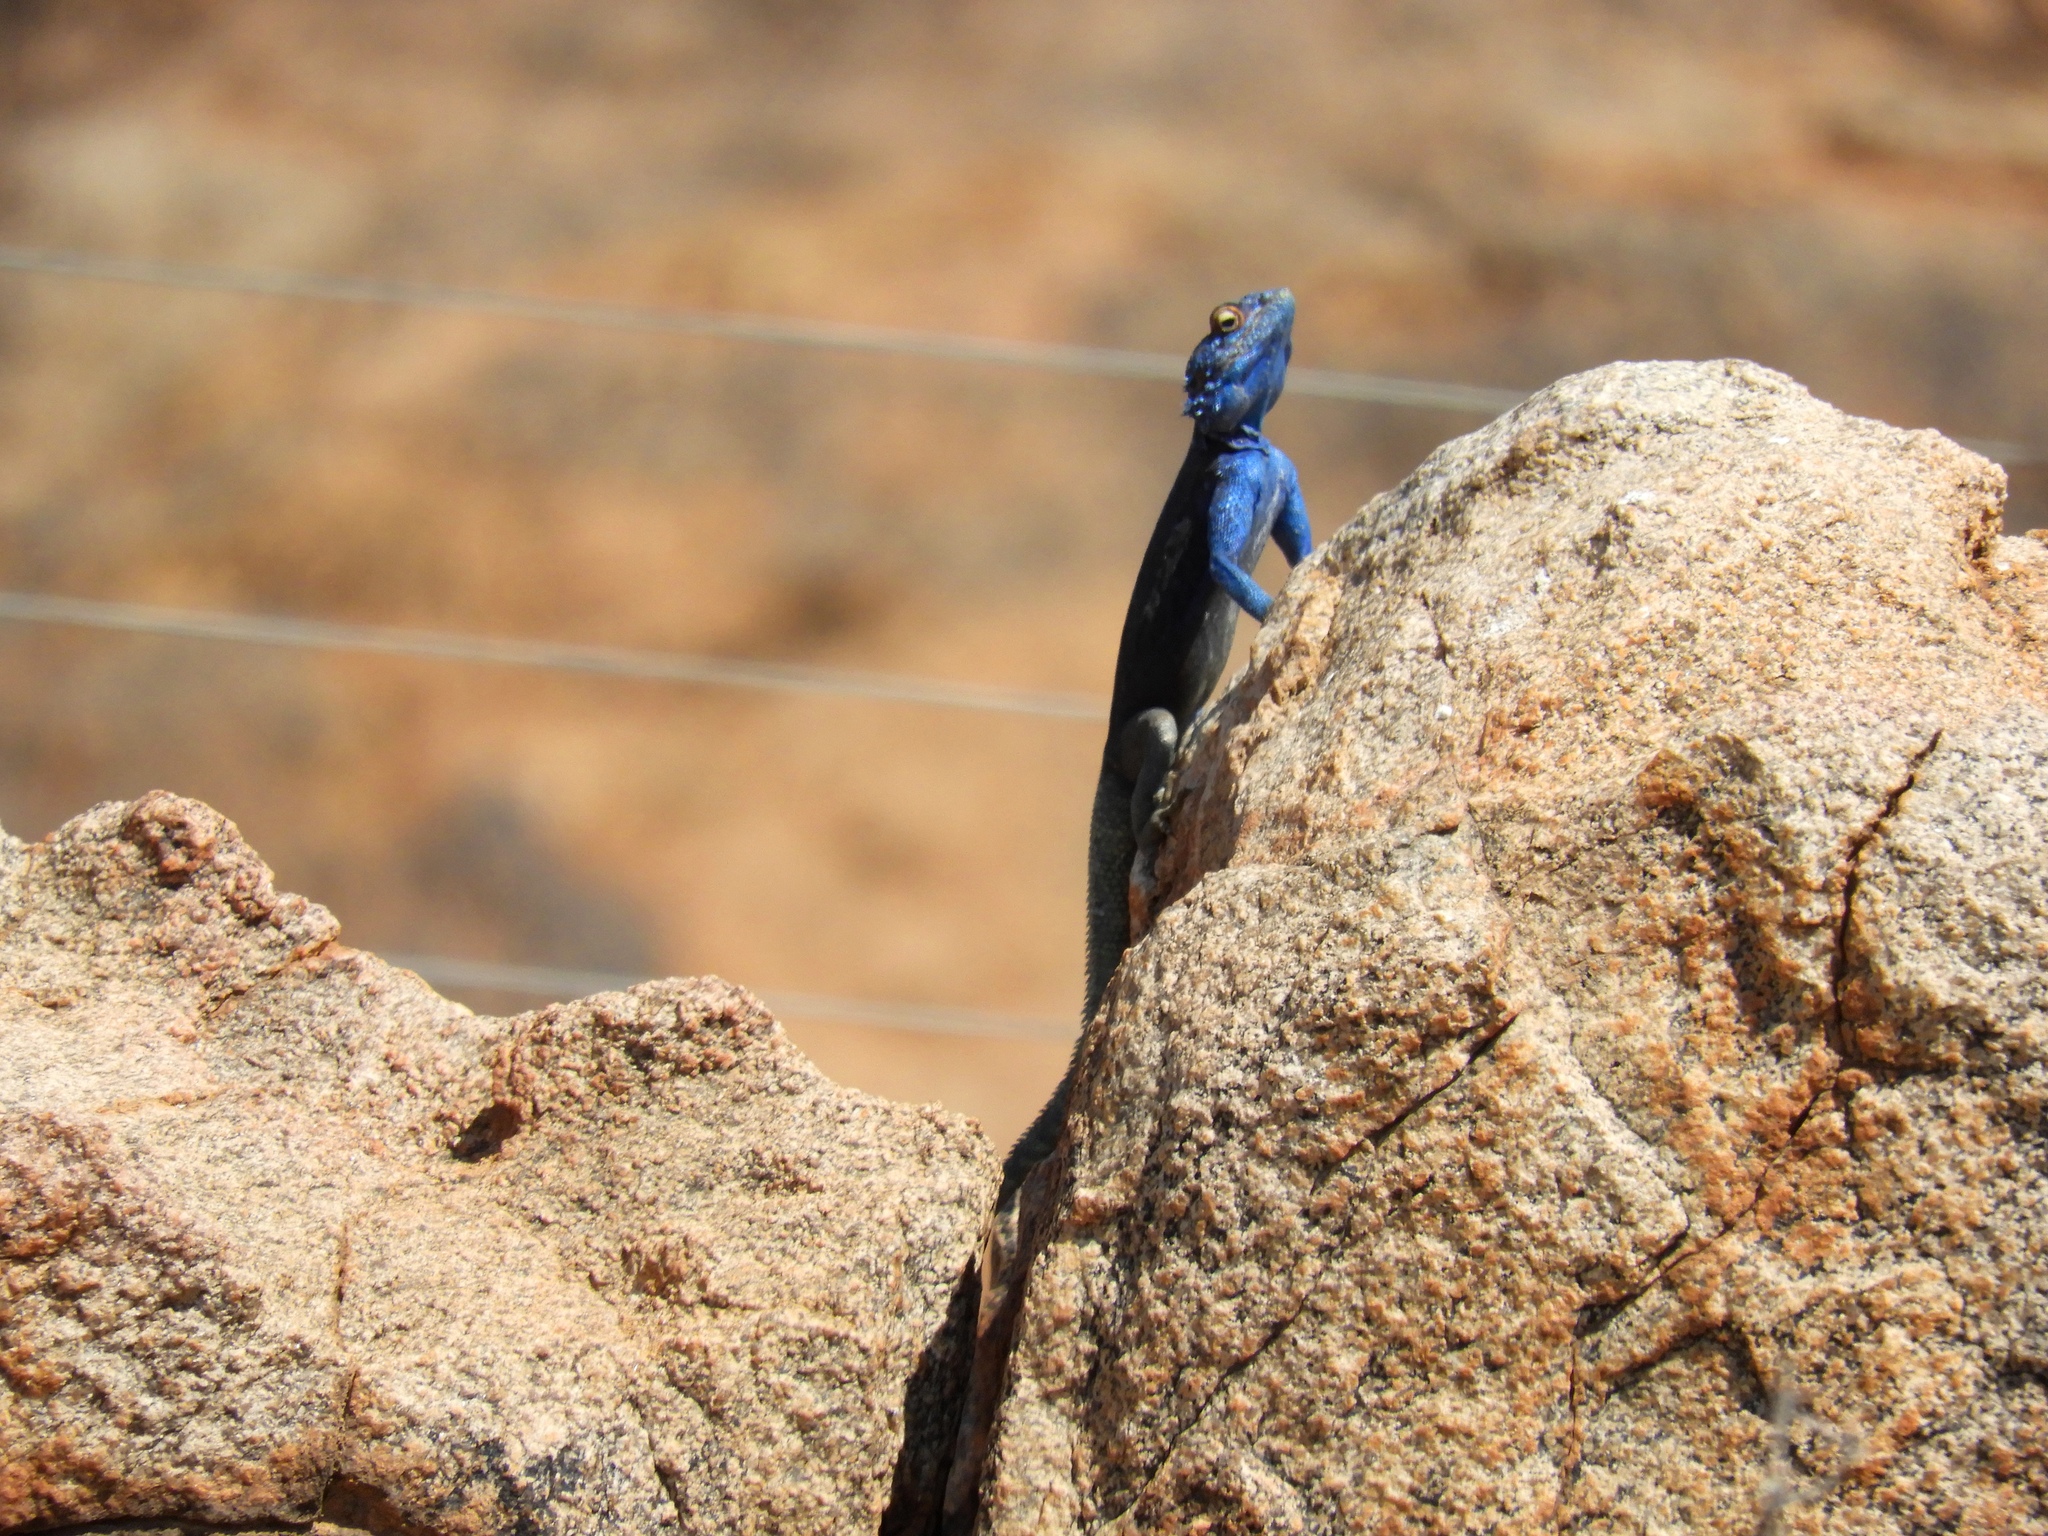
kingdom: Animalia
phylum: Chordata
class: Squamata
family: Agamidae
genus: Agama
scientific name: Agama atra
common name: Southern african rock agama
